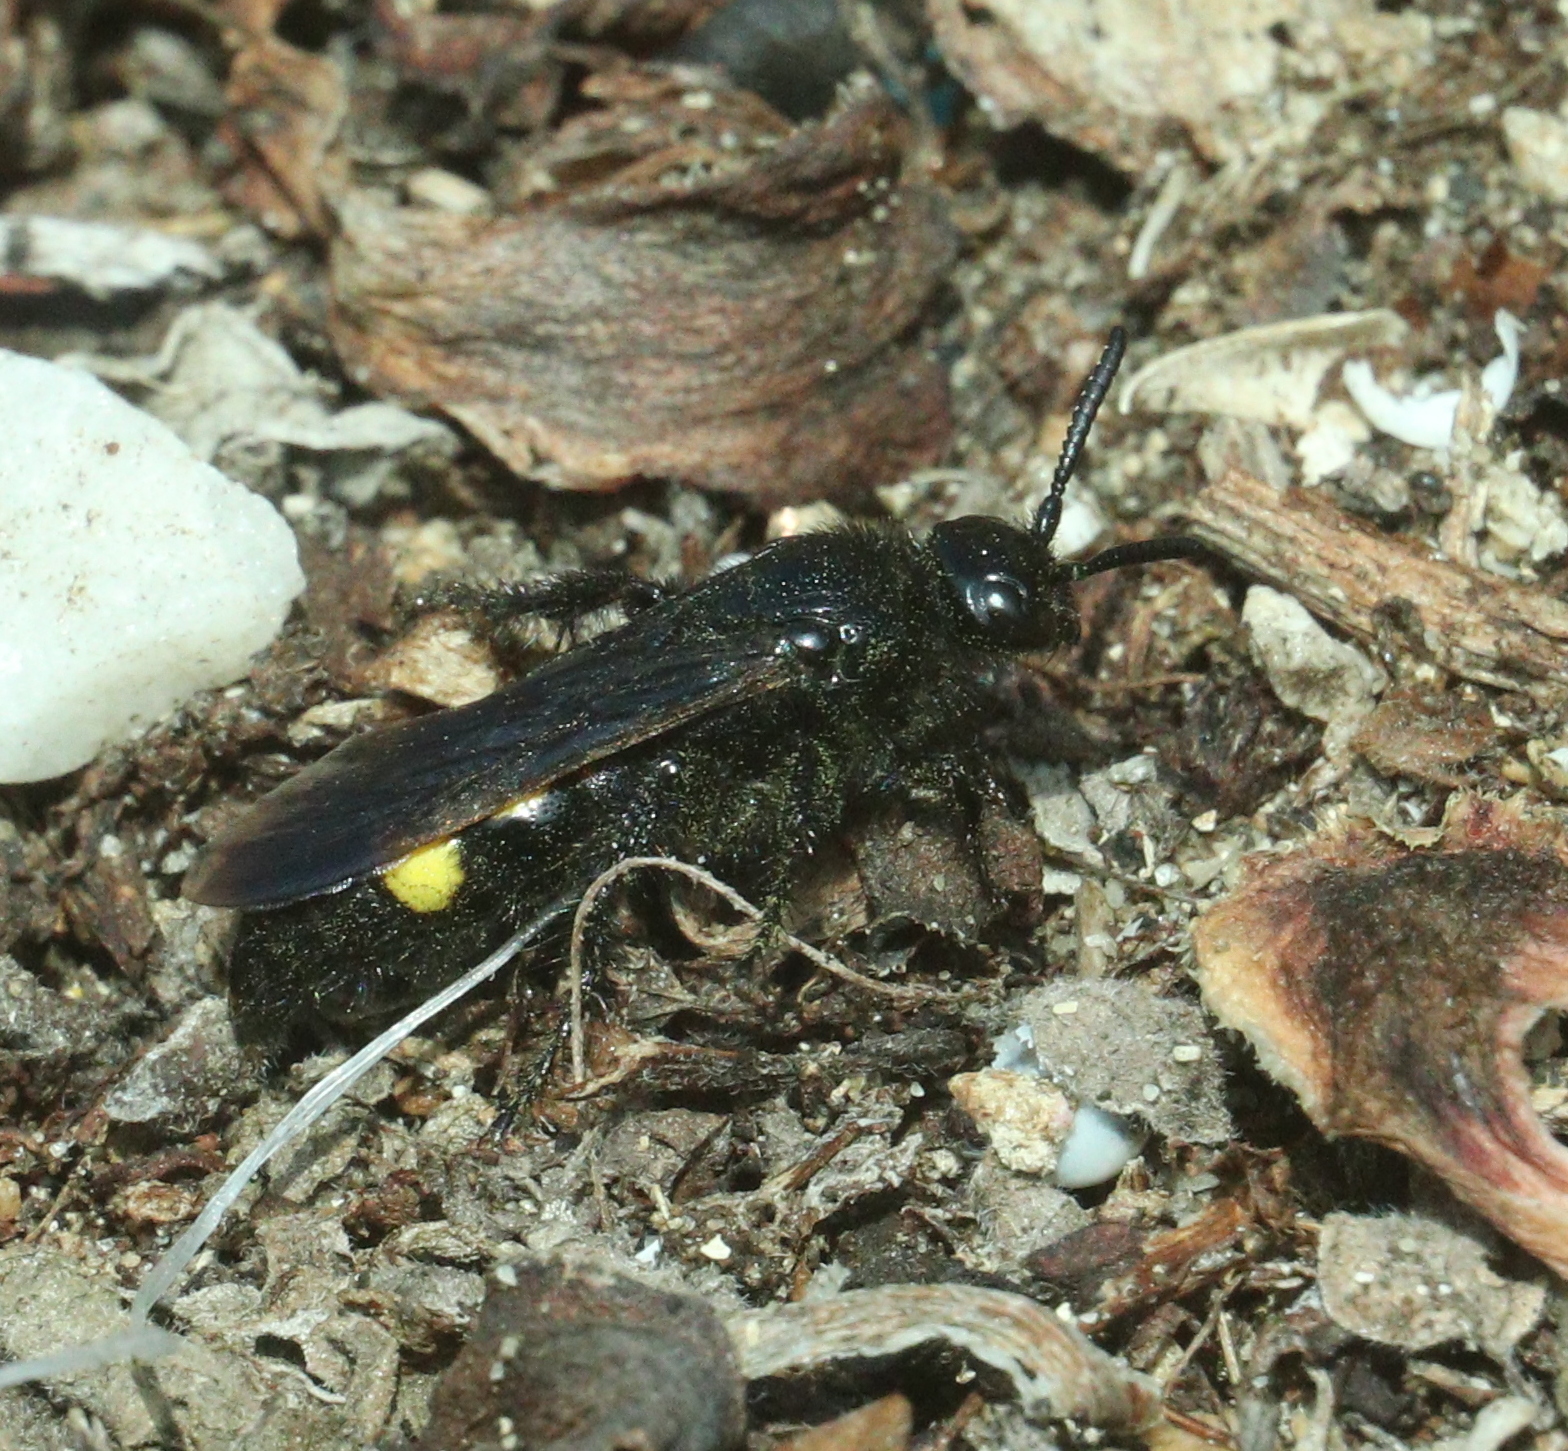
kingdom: Animalia
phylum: Arthropoda
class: Insecta
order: Hymenoptera
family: Scoliidae
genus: Scolia
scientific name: Scolia hirta
